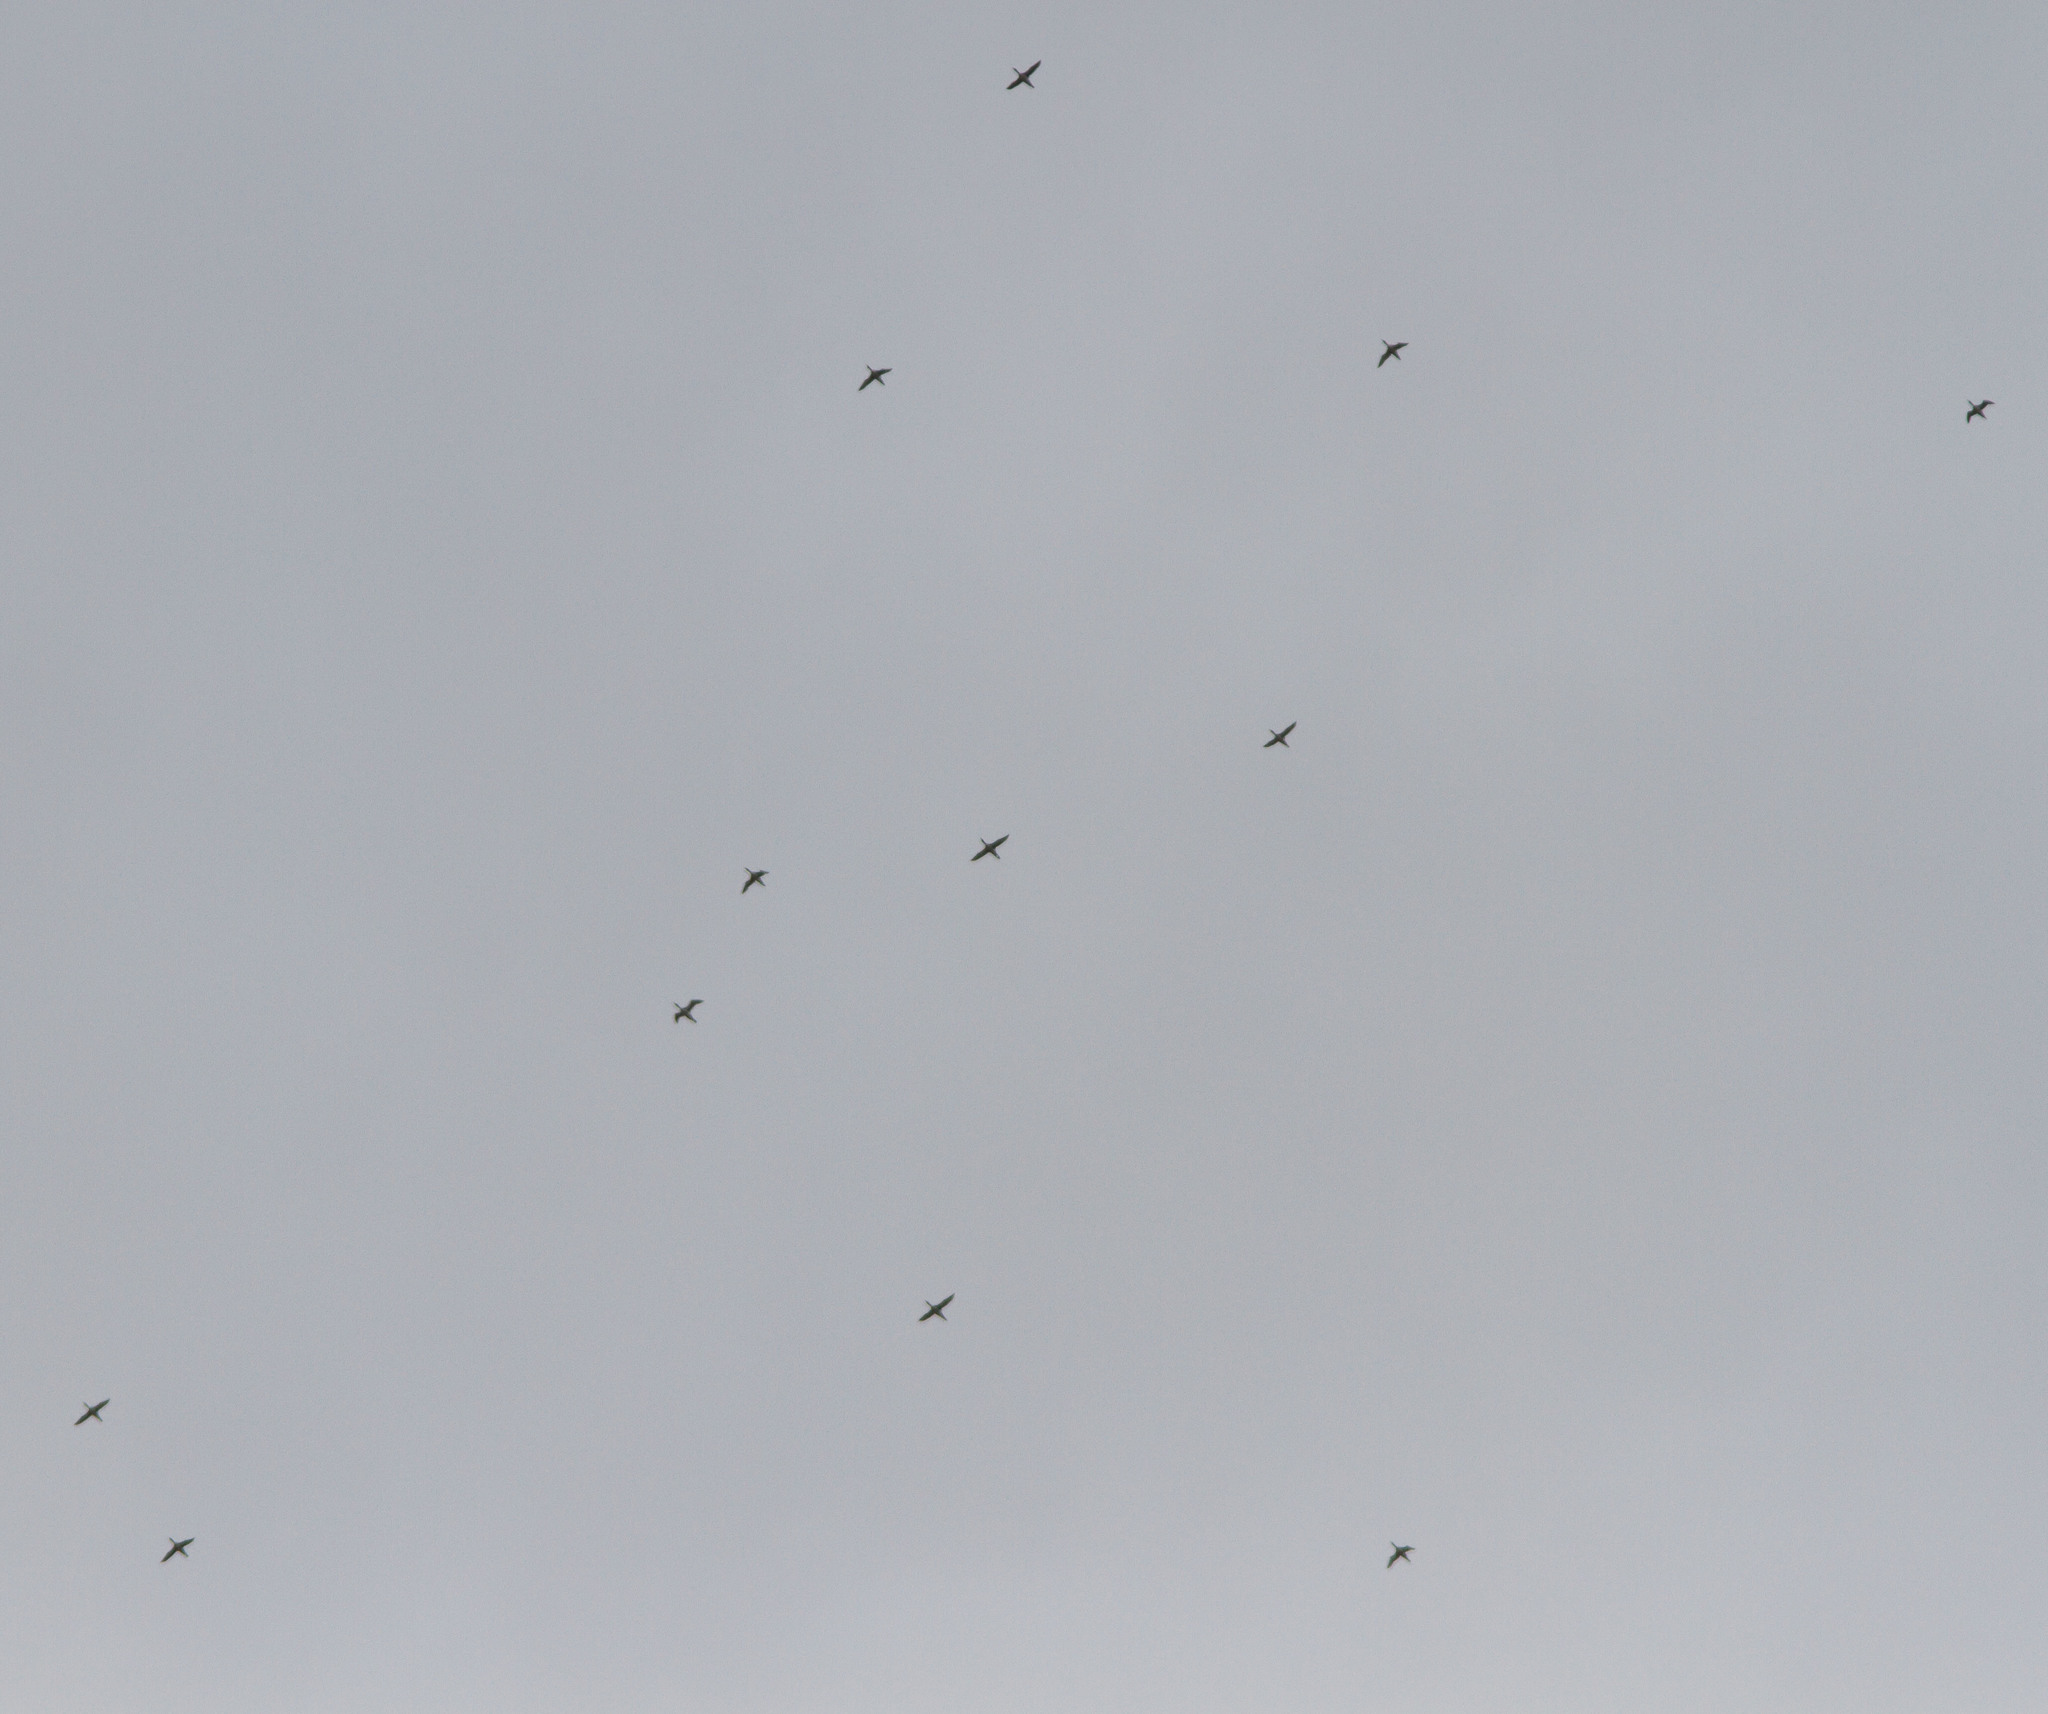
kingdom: Animalia
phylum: Chordata
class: Aves
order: Gaviiformes
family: Gaviidae
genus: Gavia
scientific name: Gavia immer
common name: Common loon
